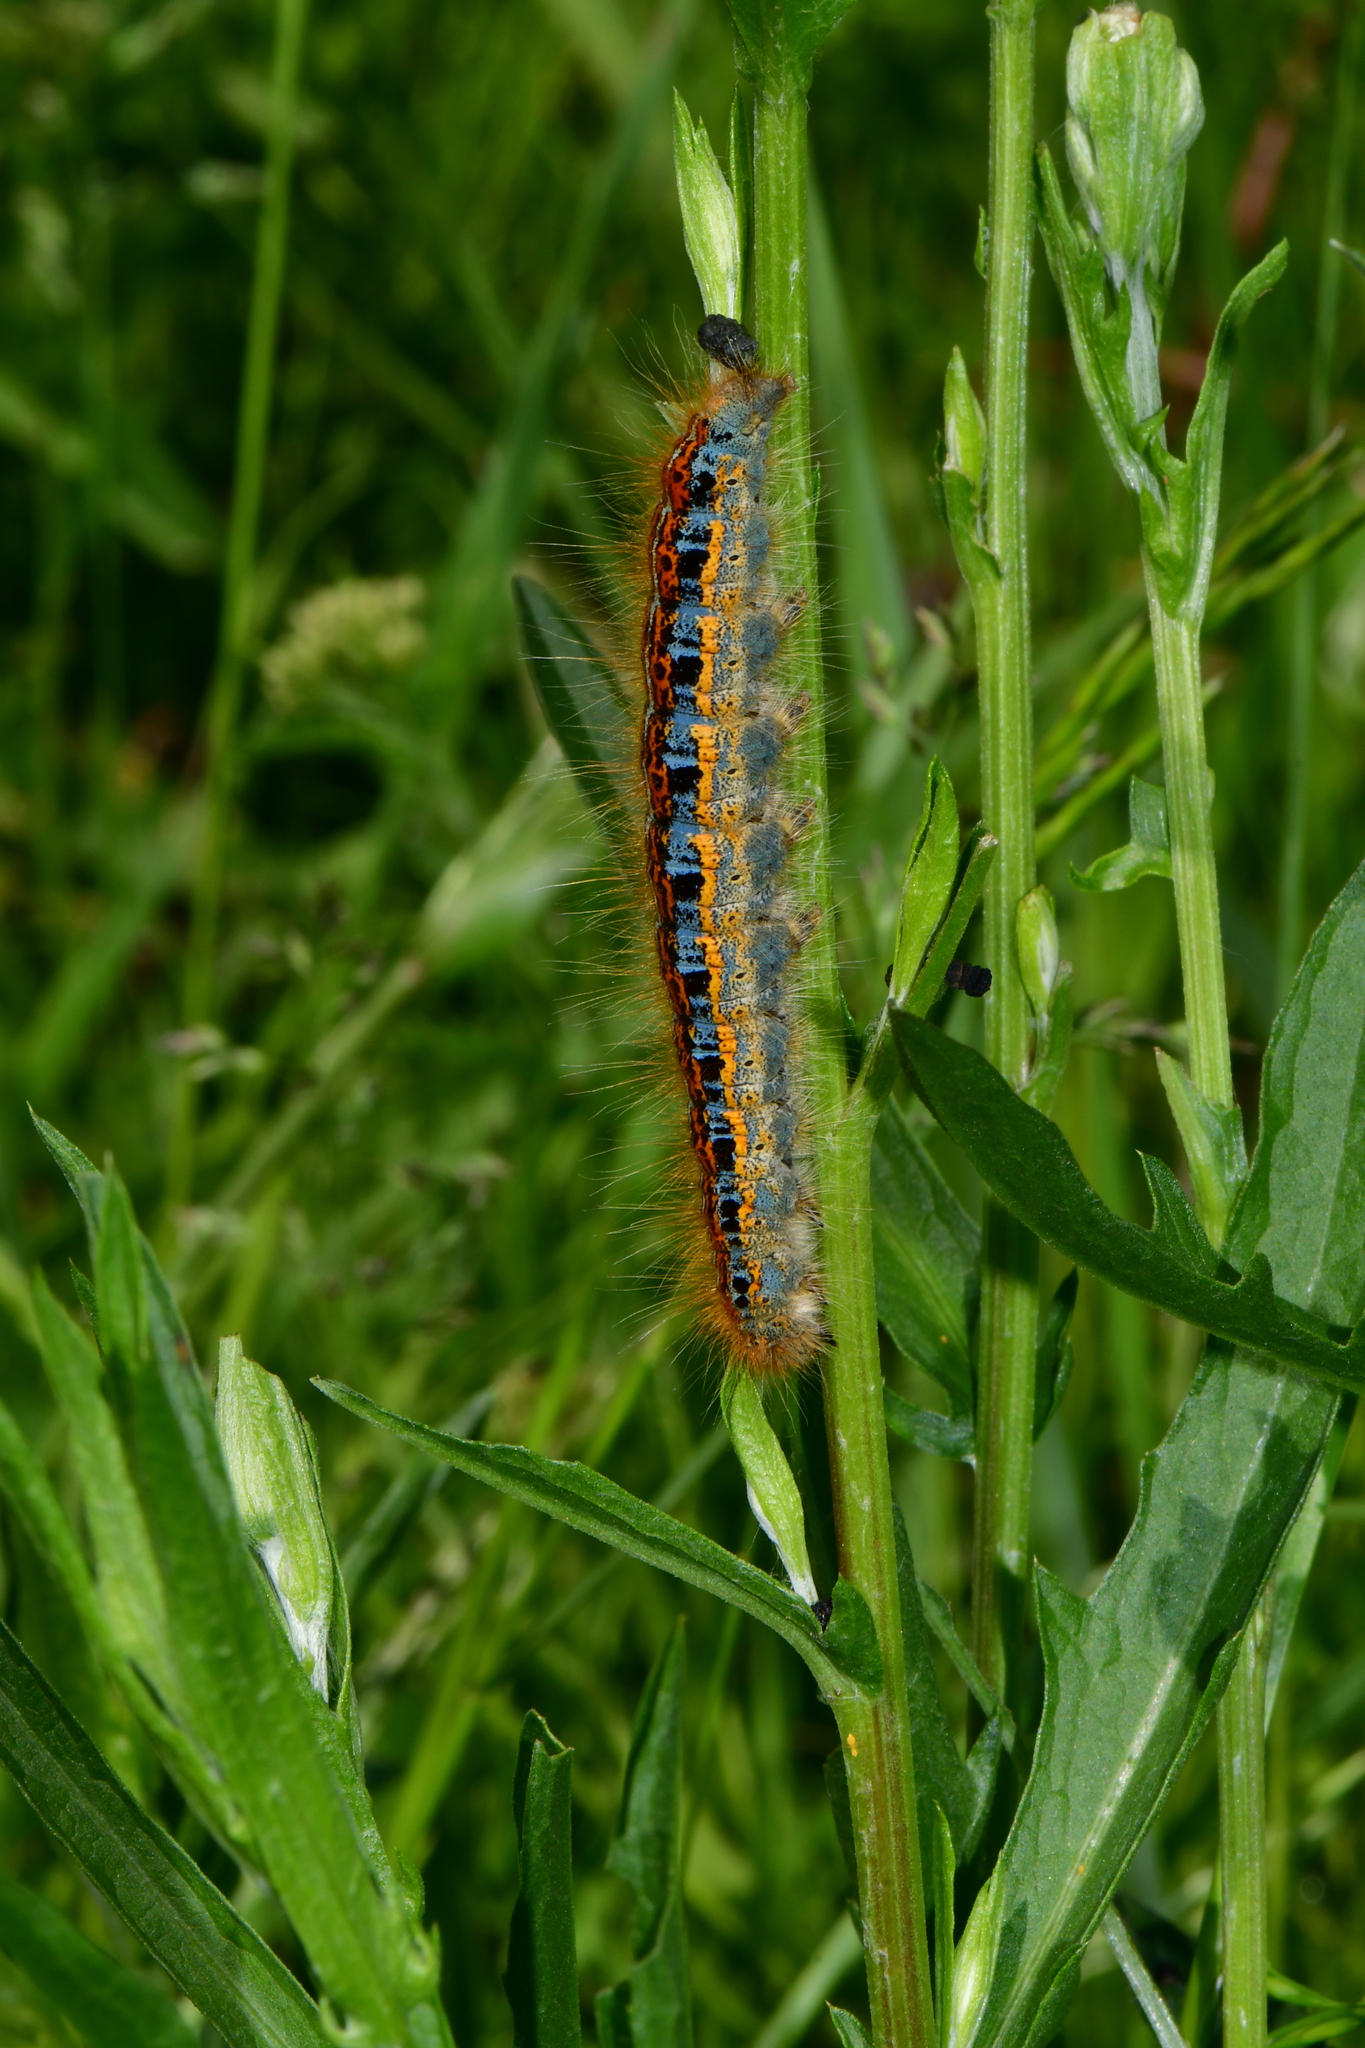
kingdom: Animalia
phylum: Arthropoda
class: Insecta
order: Lepidoptera
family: Lasiocampidae
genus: Malacosoma
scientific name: Malacosoma castrense
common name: Ground lackey
